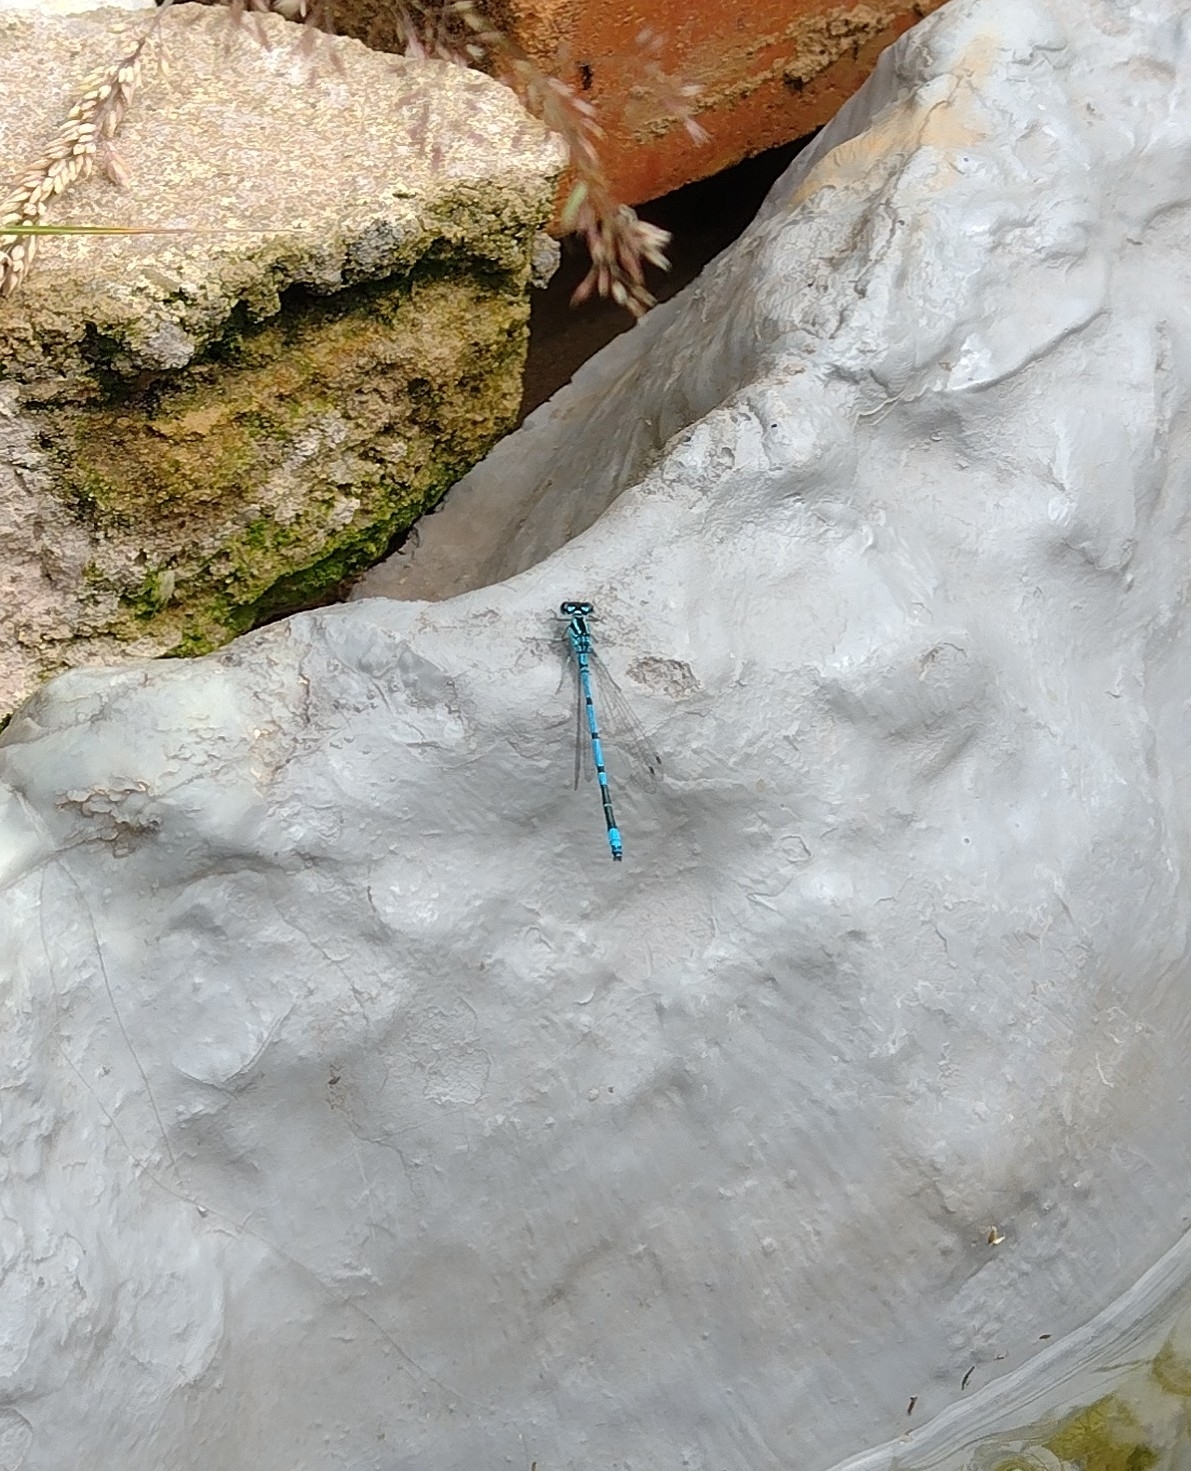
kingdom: Animalia
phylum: Arthropoda
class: Insecta
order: Odonata
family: Coenagrionidae
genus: Coenagrion
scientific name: Coenagrion puella
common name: Azure damselfly
